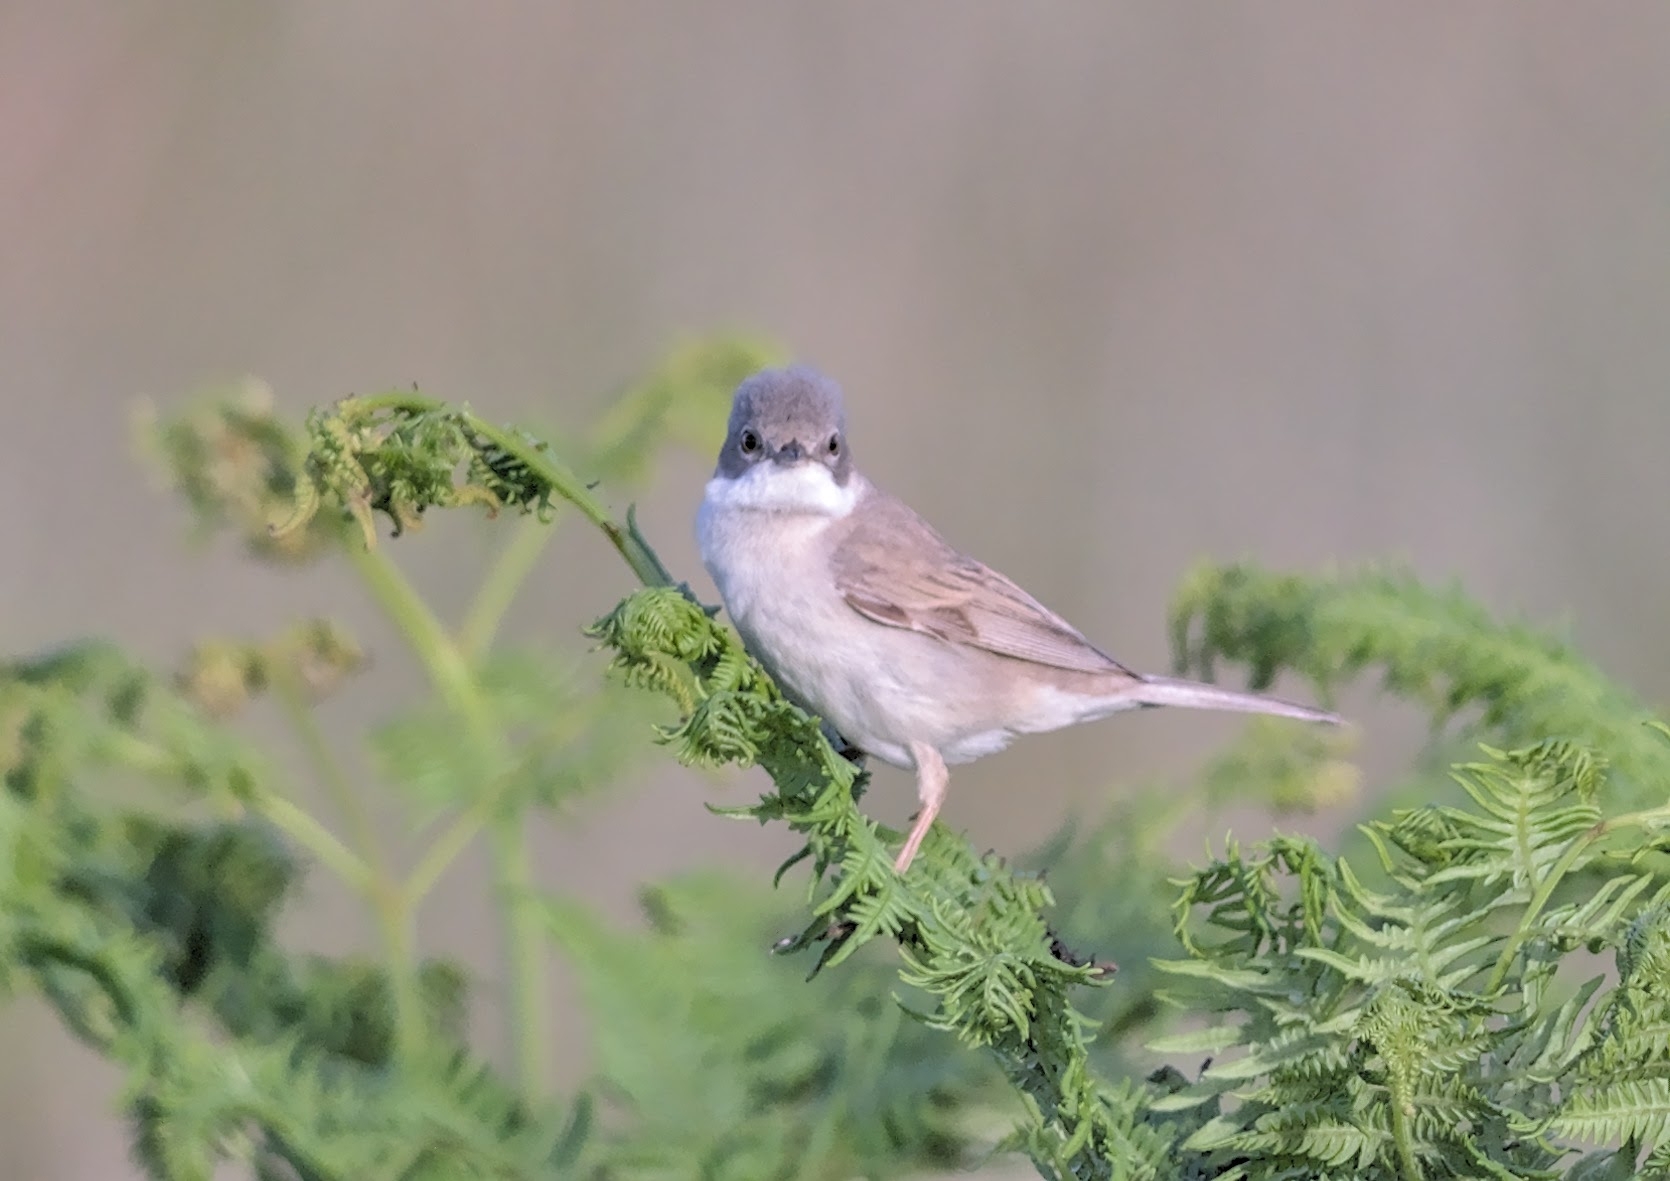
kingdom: Animalia
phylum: Chordata
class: Aves
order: Passeriformes
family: Sylviidae
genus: Sylvia
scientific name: Sylvia communis
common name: Common whitethroat
